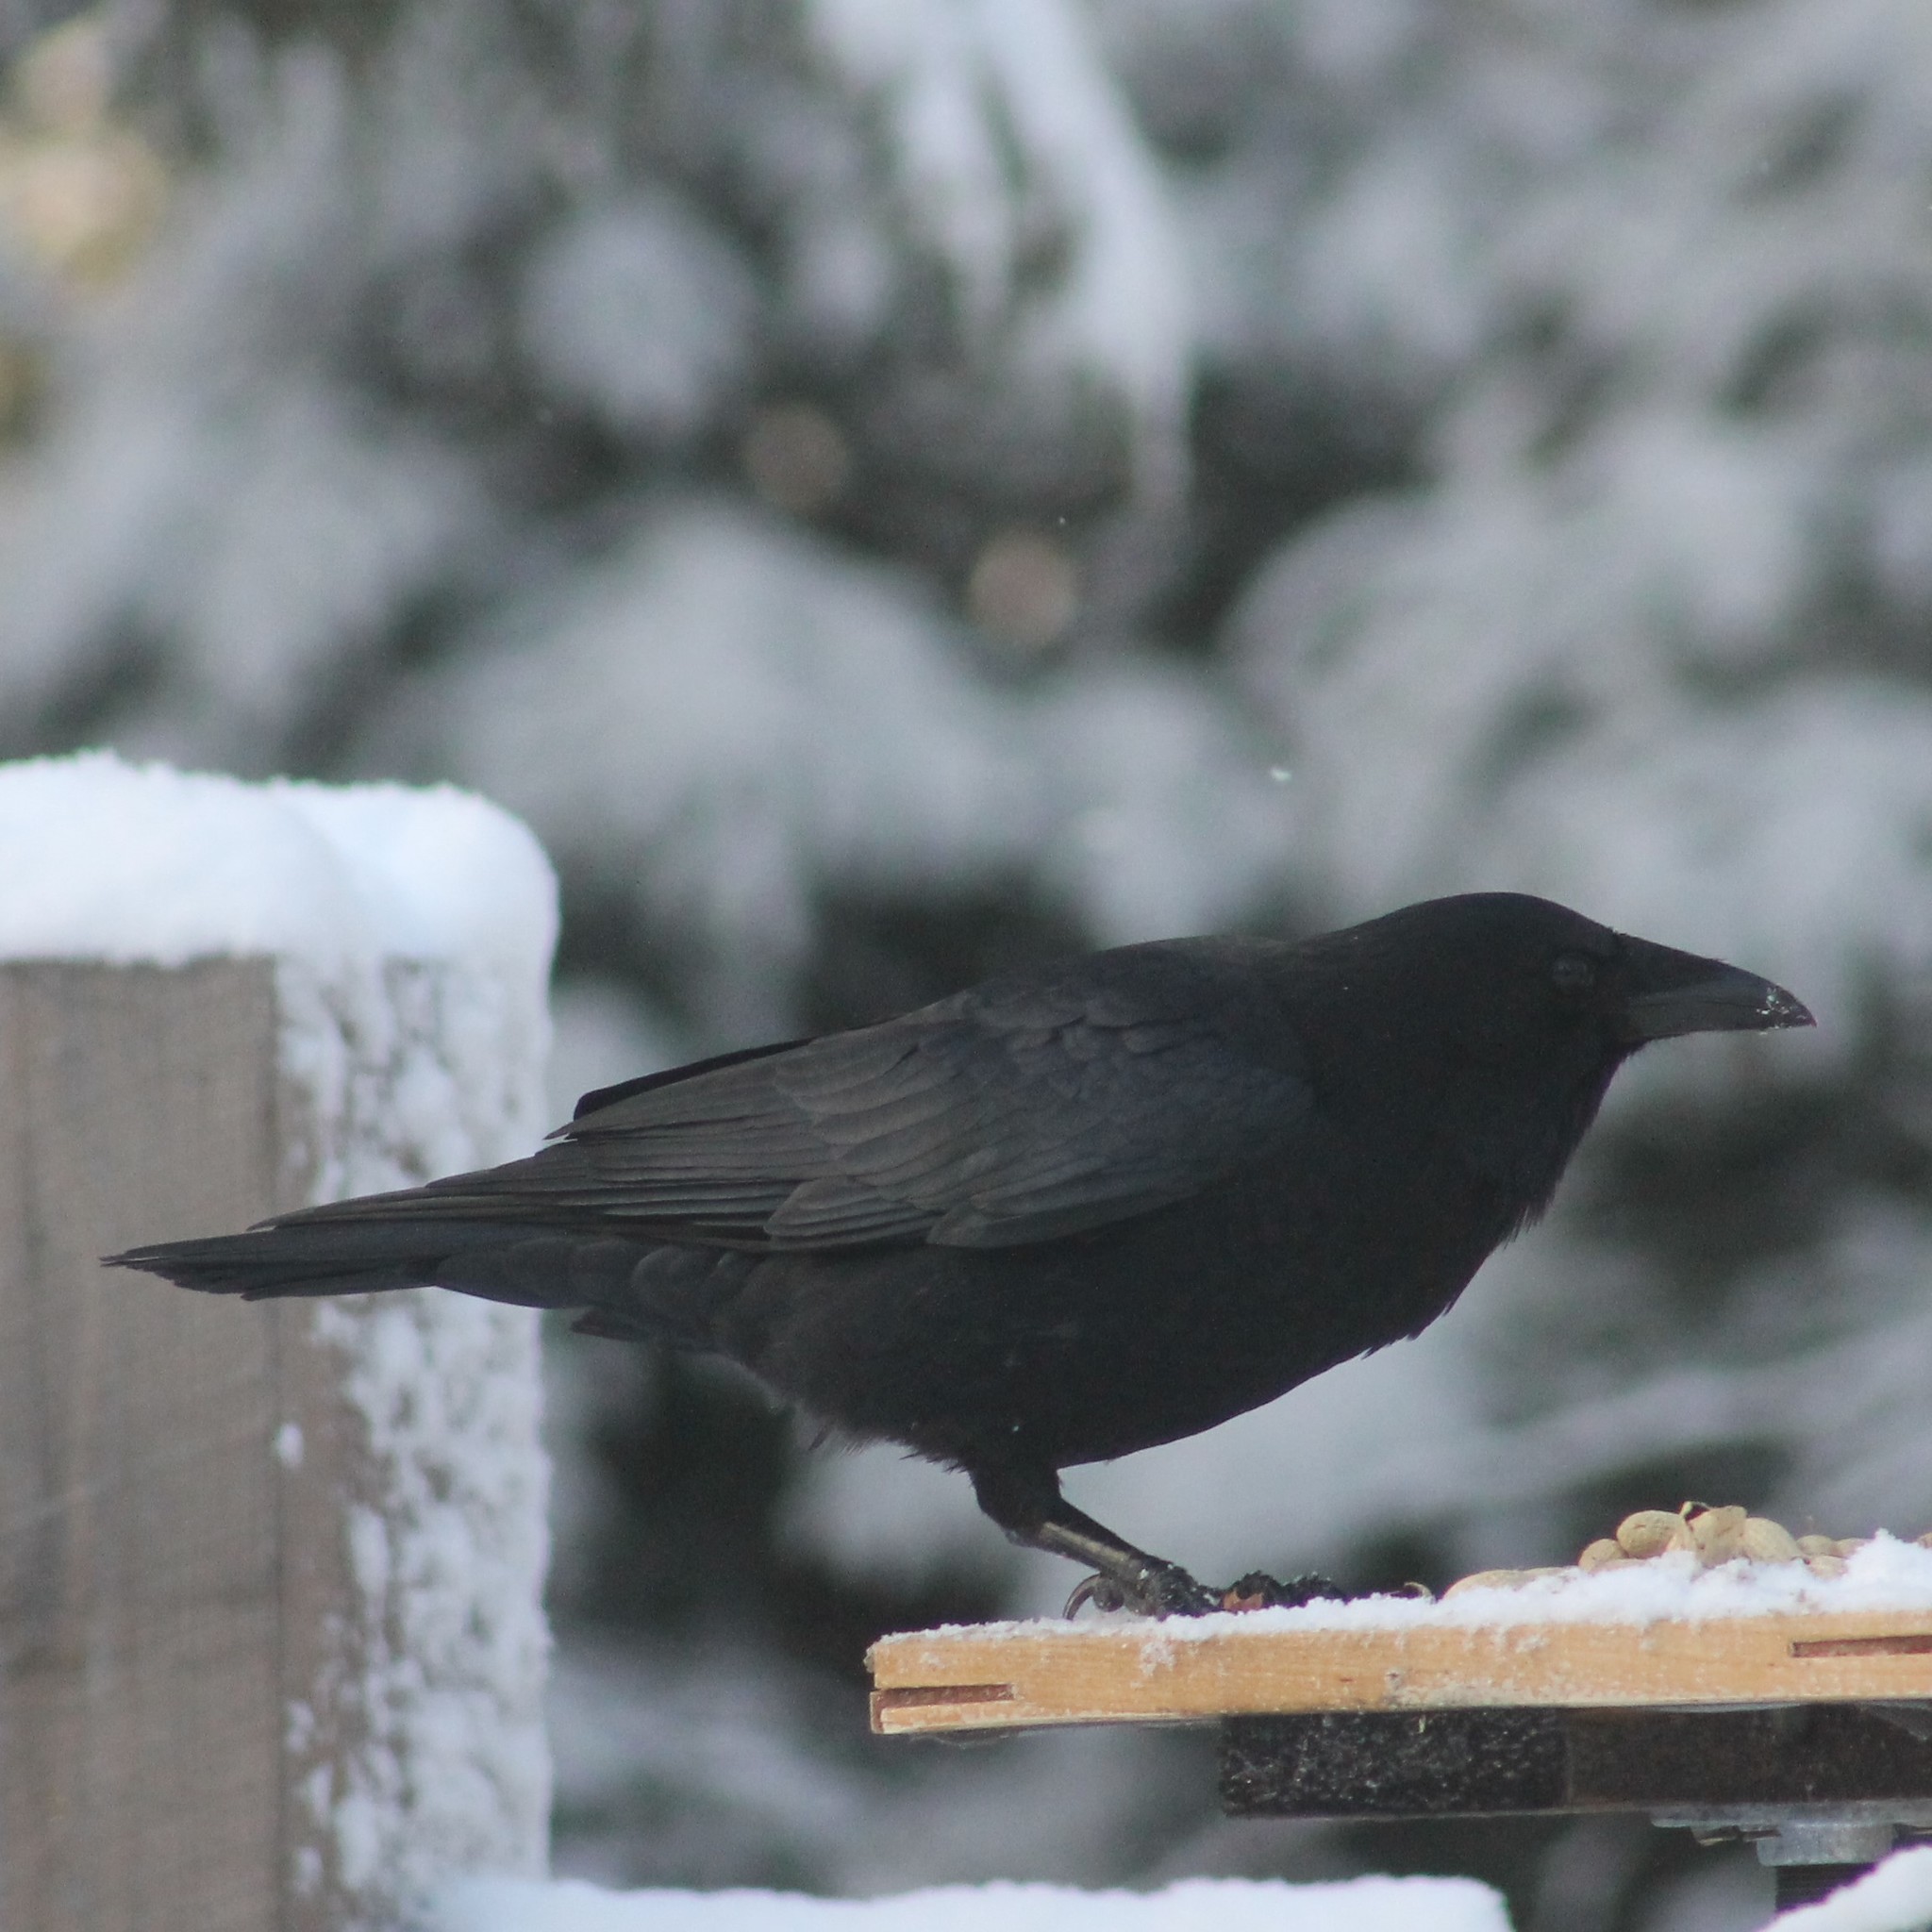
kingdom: Animalia
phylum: Chordata
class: Aves
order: Passeriformes
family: Corvidae
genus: Corvus
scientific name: Corvus brachyrhynchos
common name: American crow
